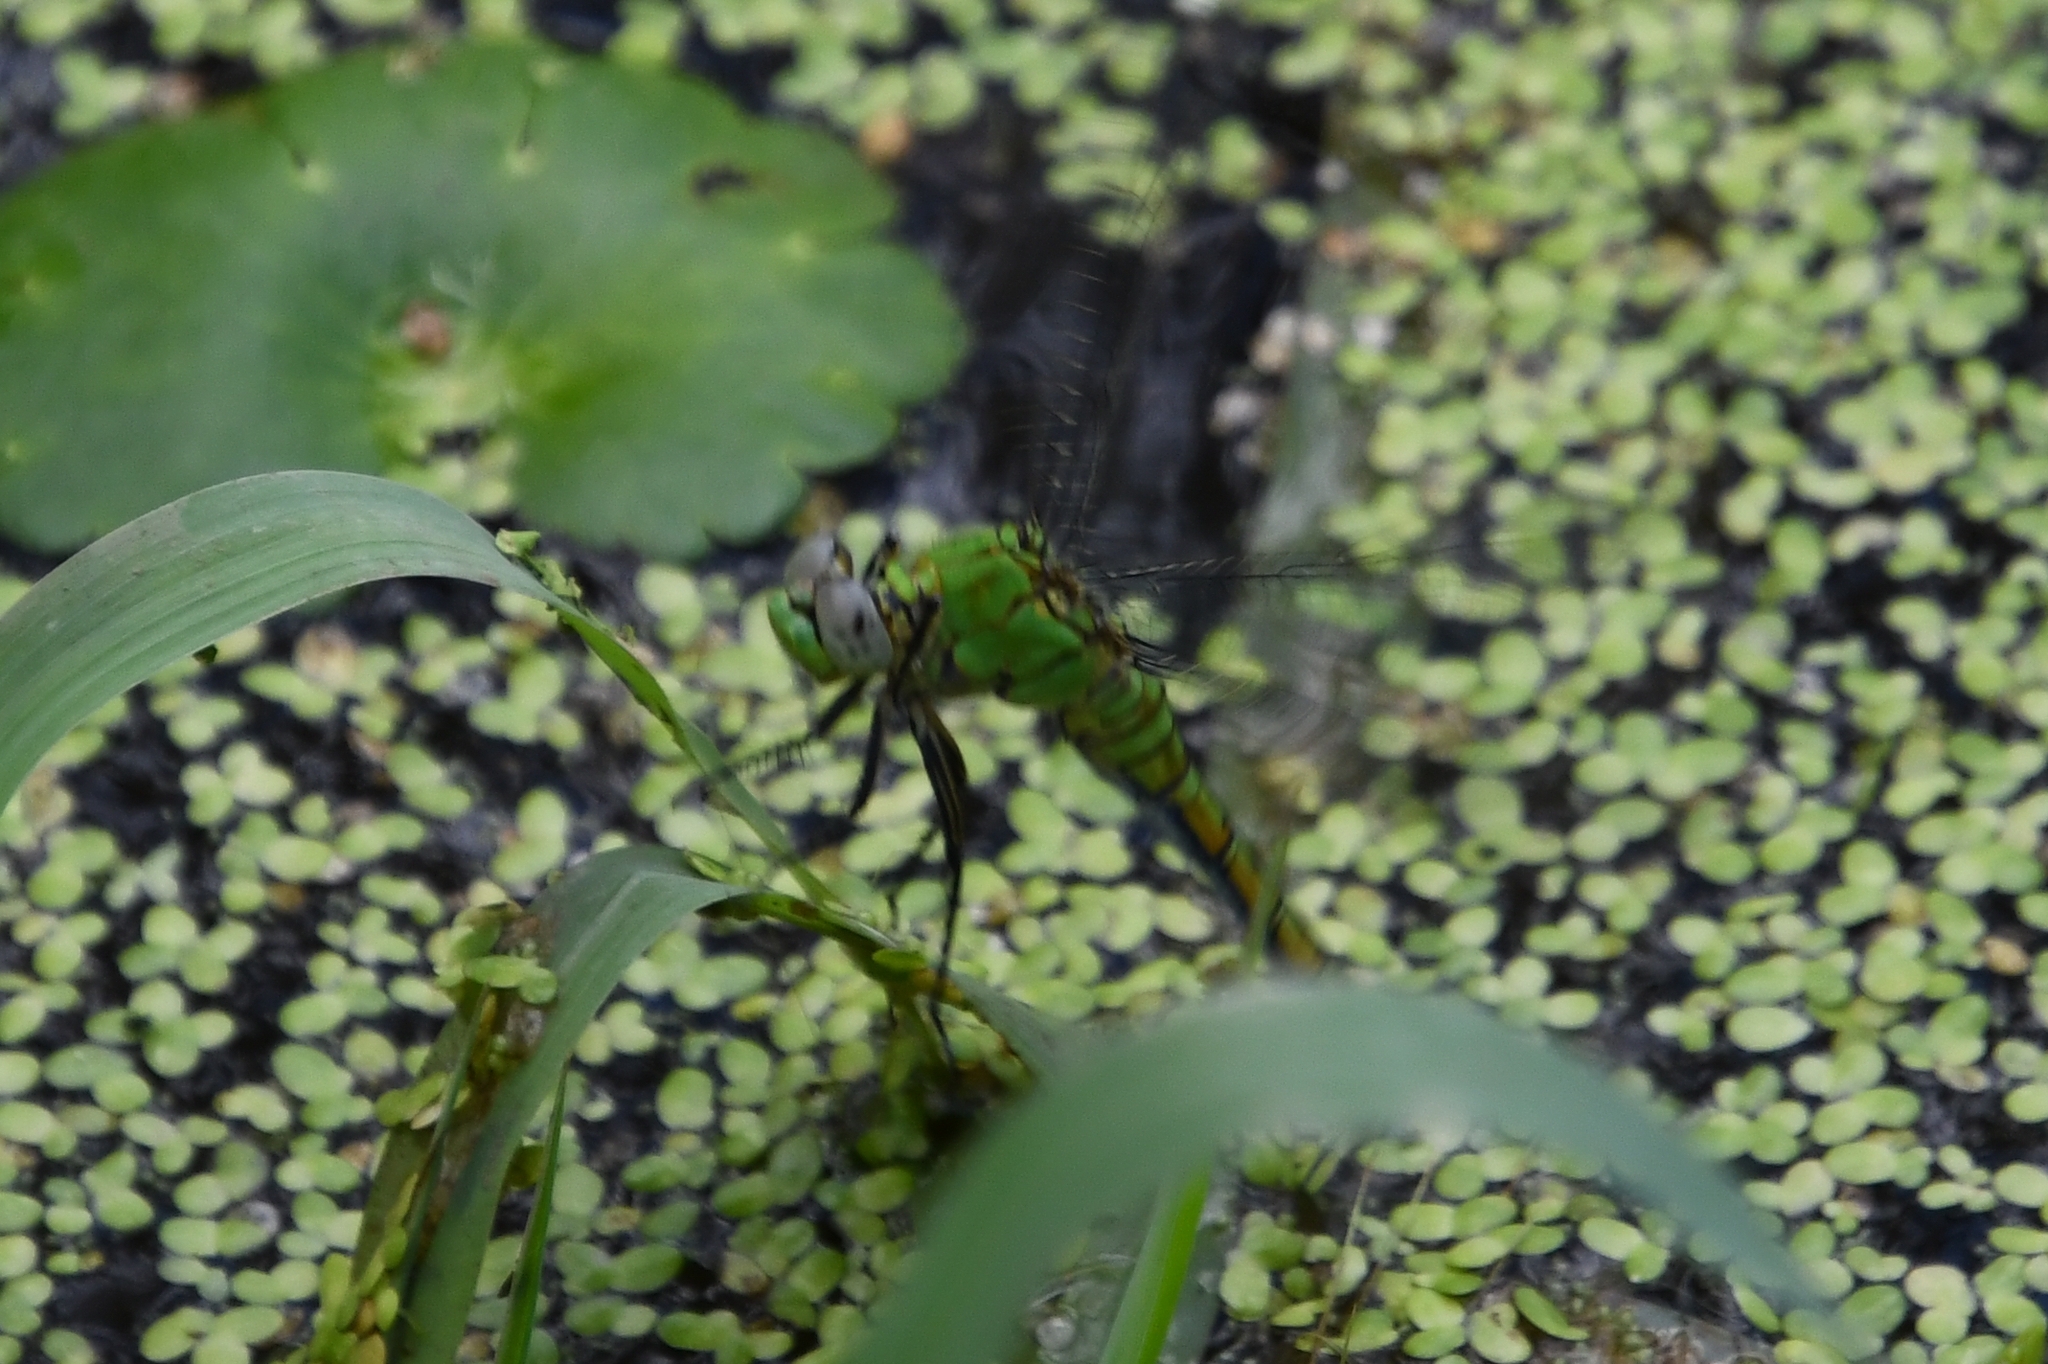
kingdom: Animalia
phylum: Arthropoda
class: Insecta
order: Odonata
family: Libellulidae
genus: Erythemis
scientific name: Erythemis collocata
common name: Western pondhawk
